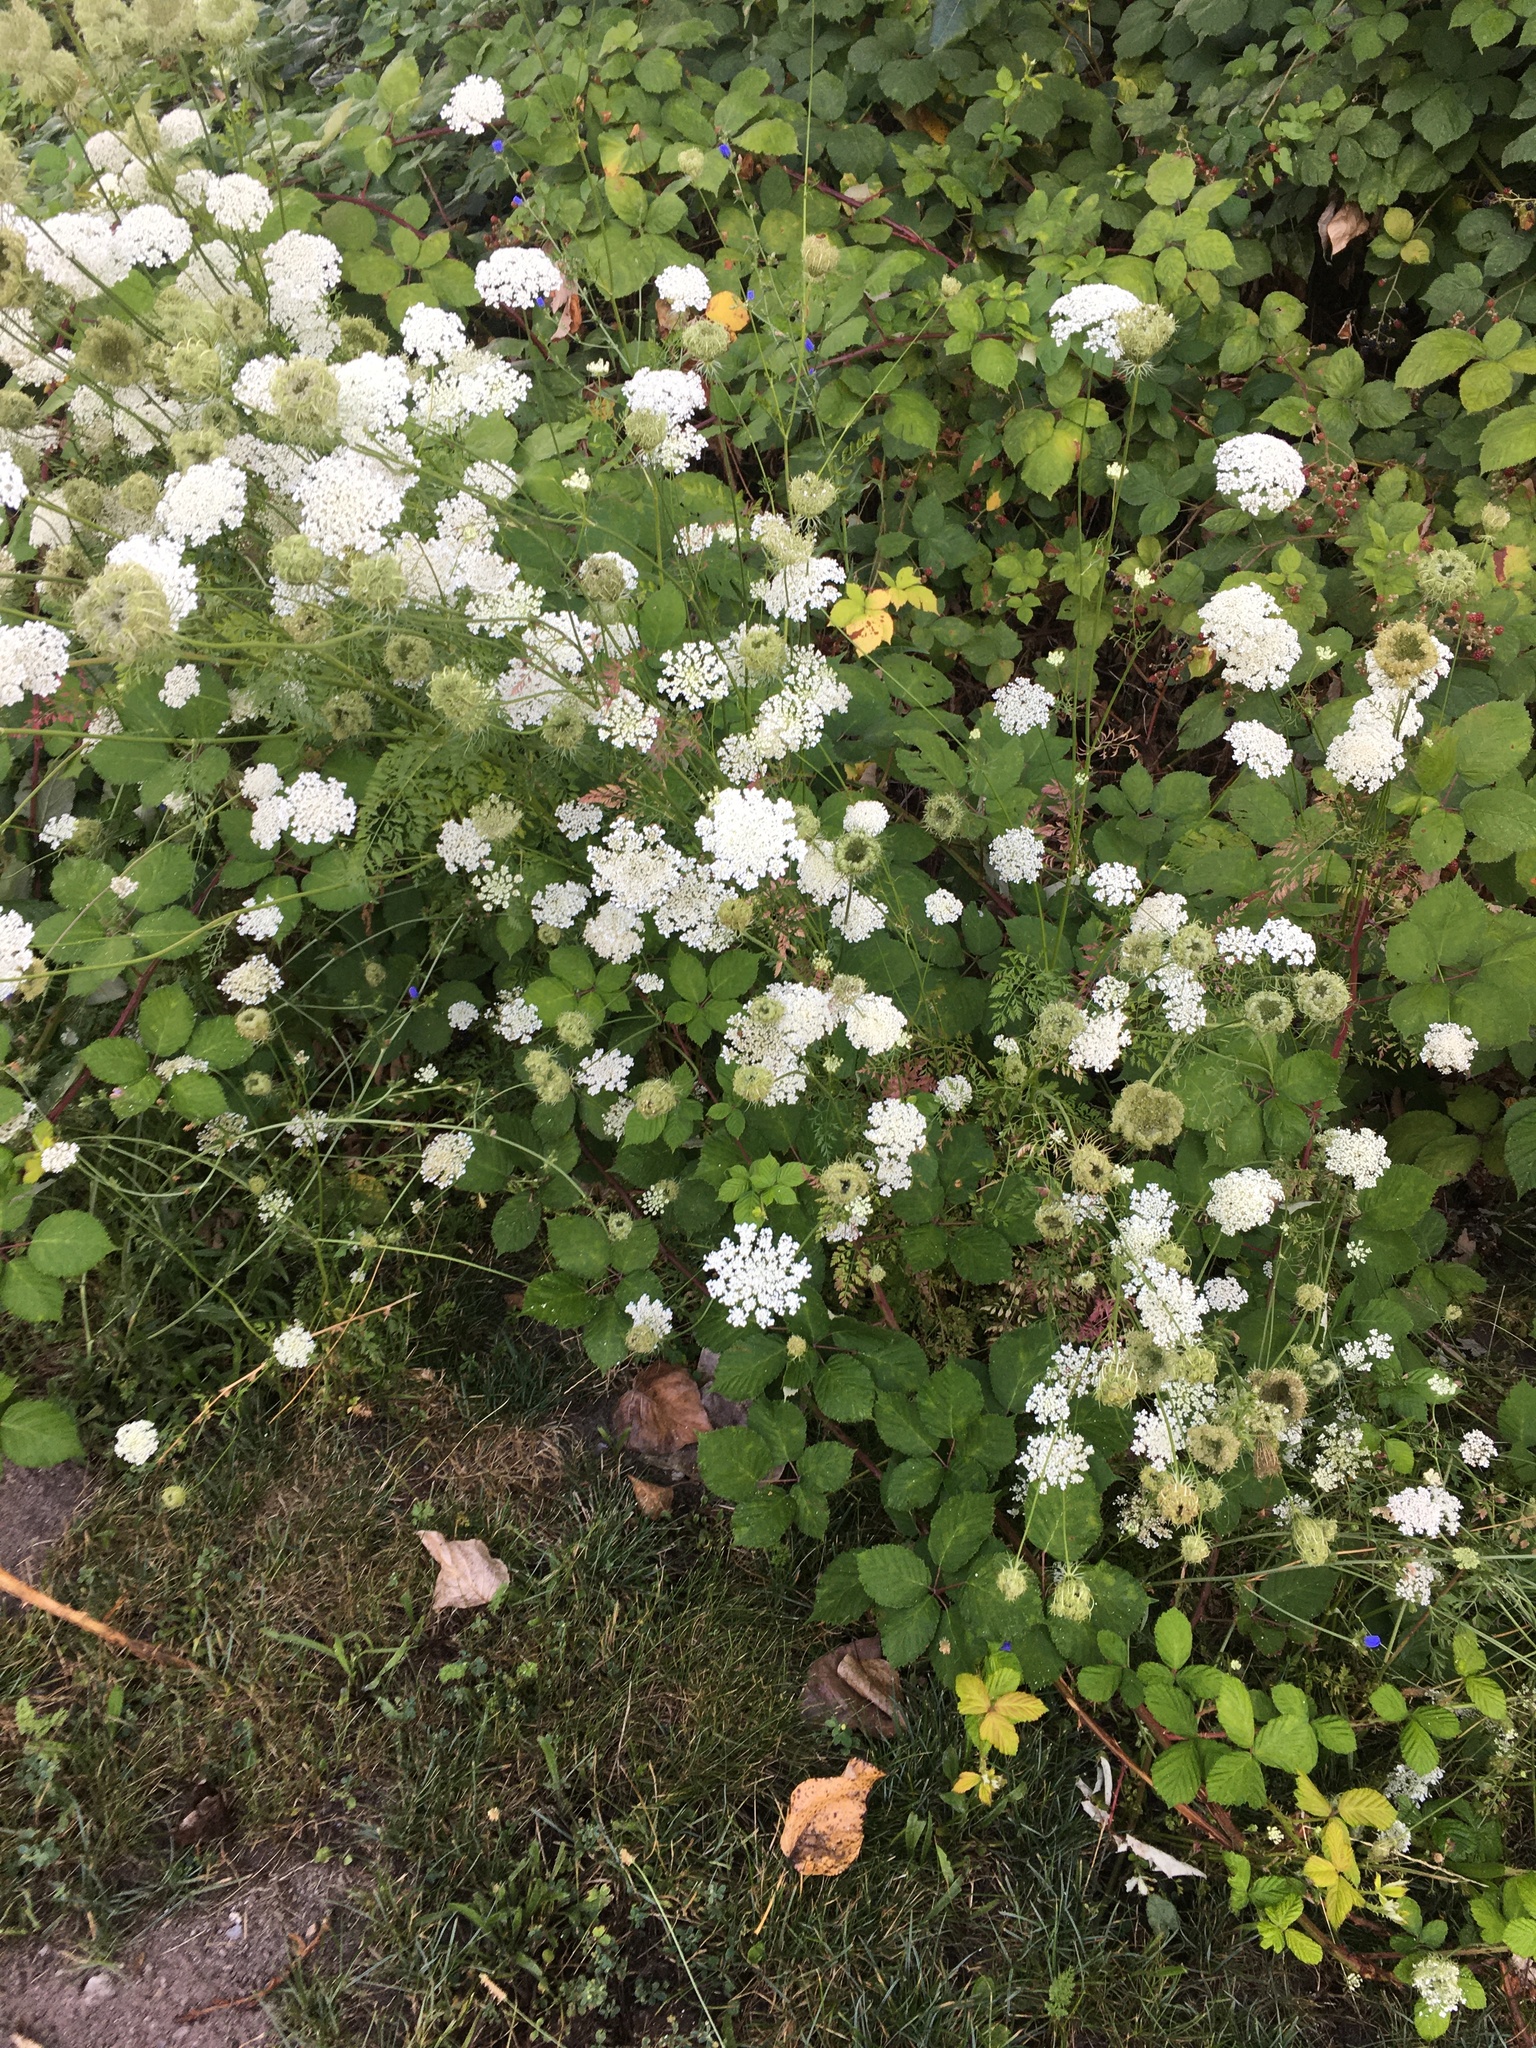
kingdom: Plantae
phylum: Tracheophyta
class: Magnoliopsida
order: Apiales
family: Apiaceae
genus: Daucus
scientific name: Daucus carota
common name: Wild carrot
